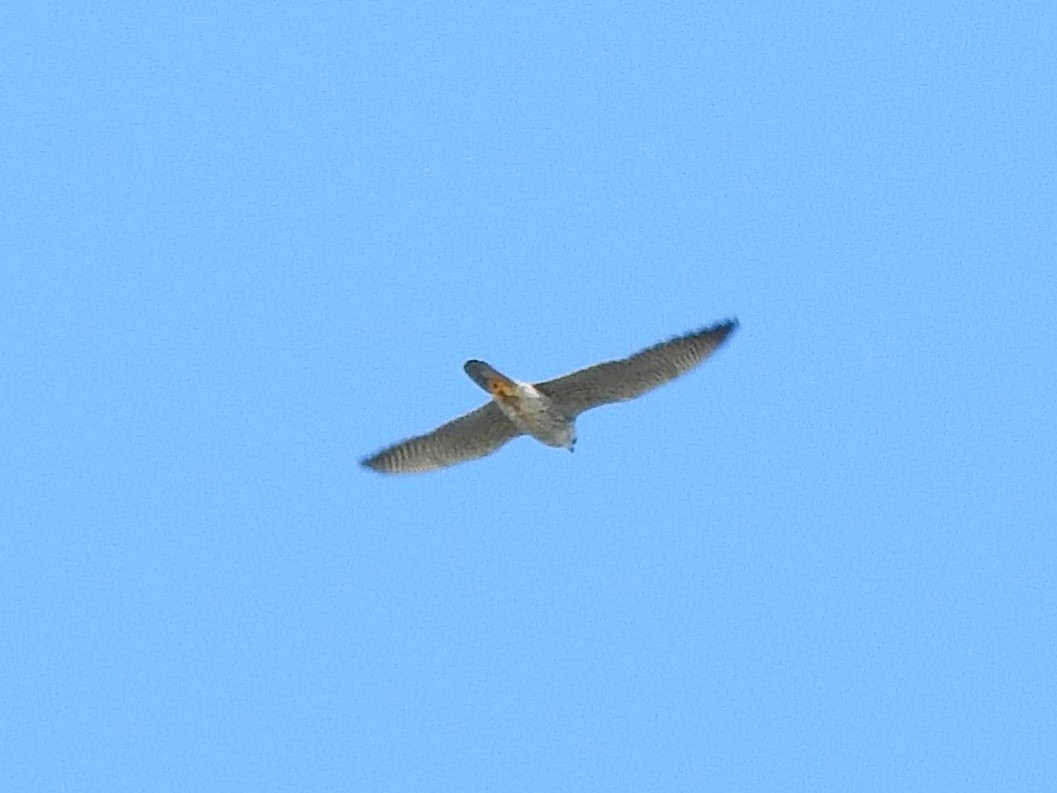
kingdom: Animalia
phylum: Chordata
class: Aves
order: Falconiformes
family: Falconidae
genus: Falco
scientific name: Falco peregrinus
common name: Peregrine falcon
